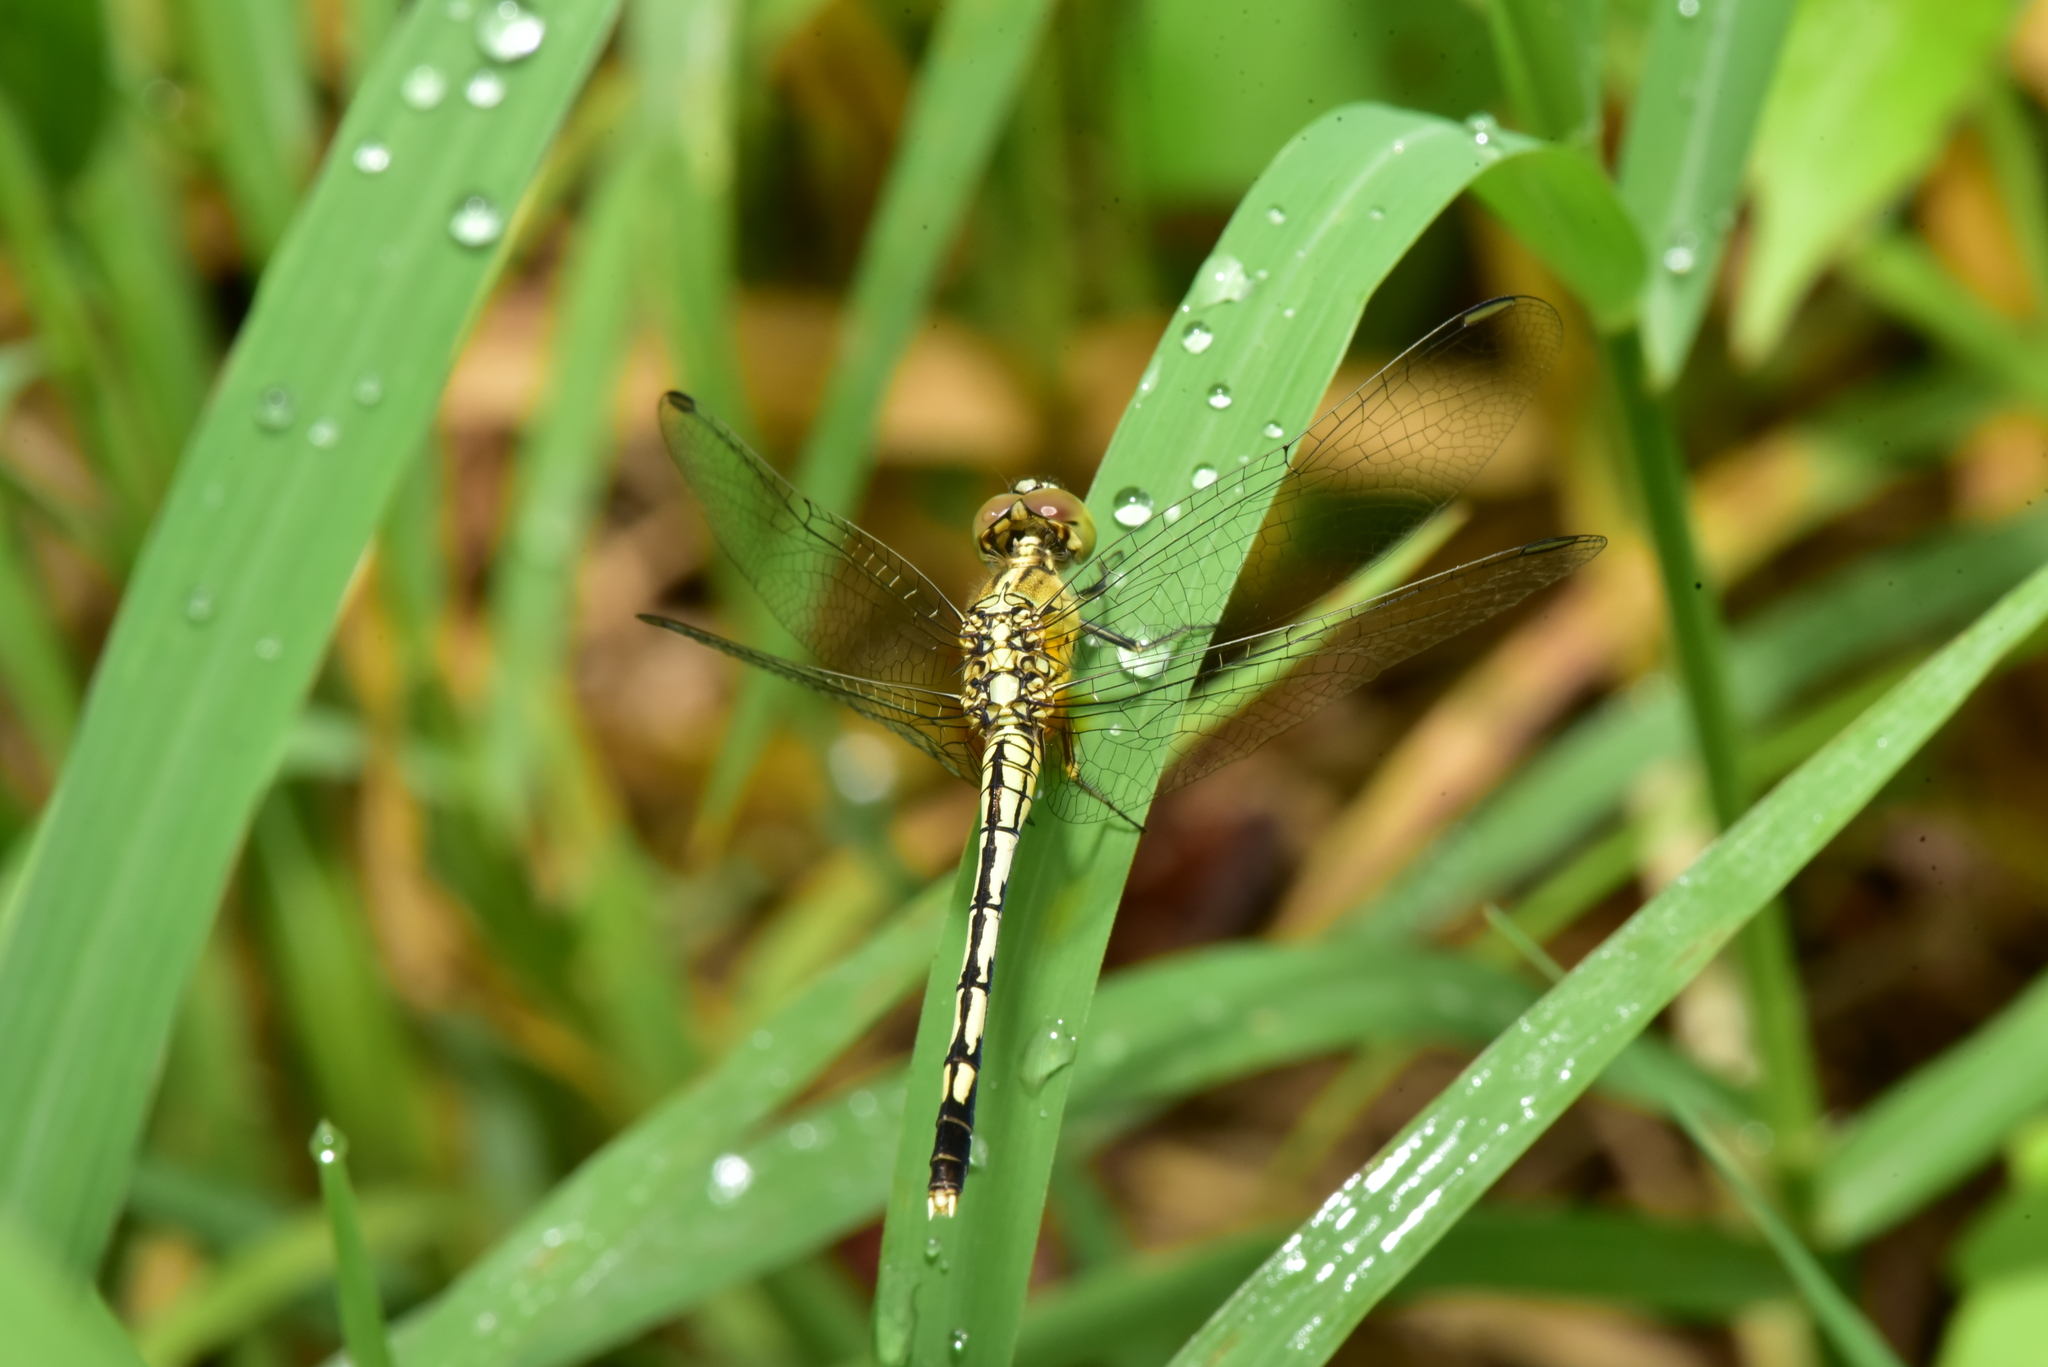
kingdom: Animalia
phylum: Arthropoda
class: Insecta
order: Odonata
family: Libellulidae
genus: Diplacodes
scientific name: Diplacodes trivialis
